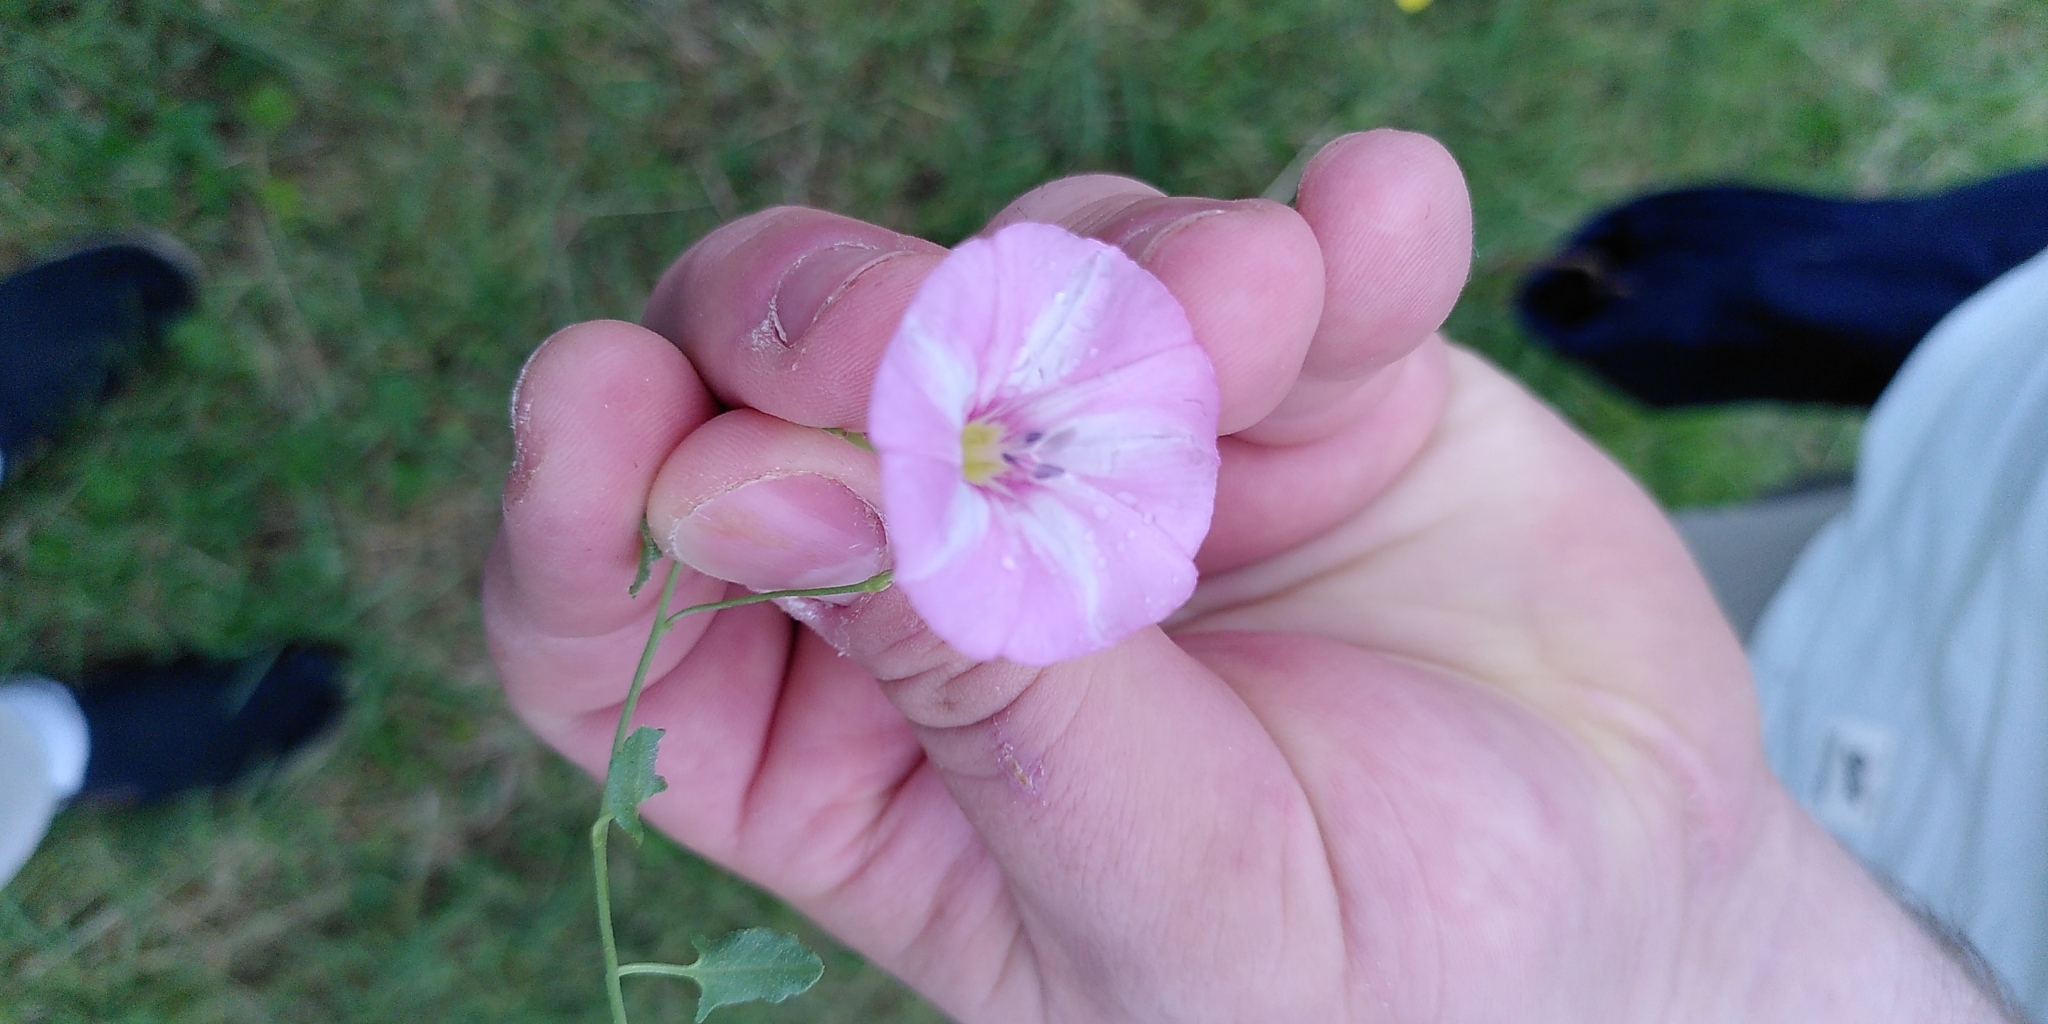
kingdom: Plantae
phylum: Tracheophyta
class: Magnoliopsida
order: Solanales
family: Convolvulaceae
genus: Convolvulus
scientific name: Convolvulus arvensis
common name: Field bindweed
